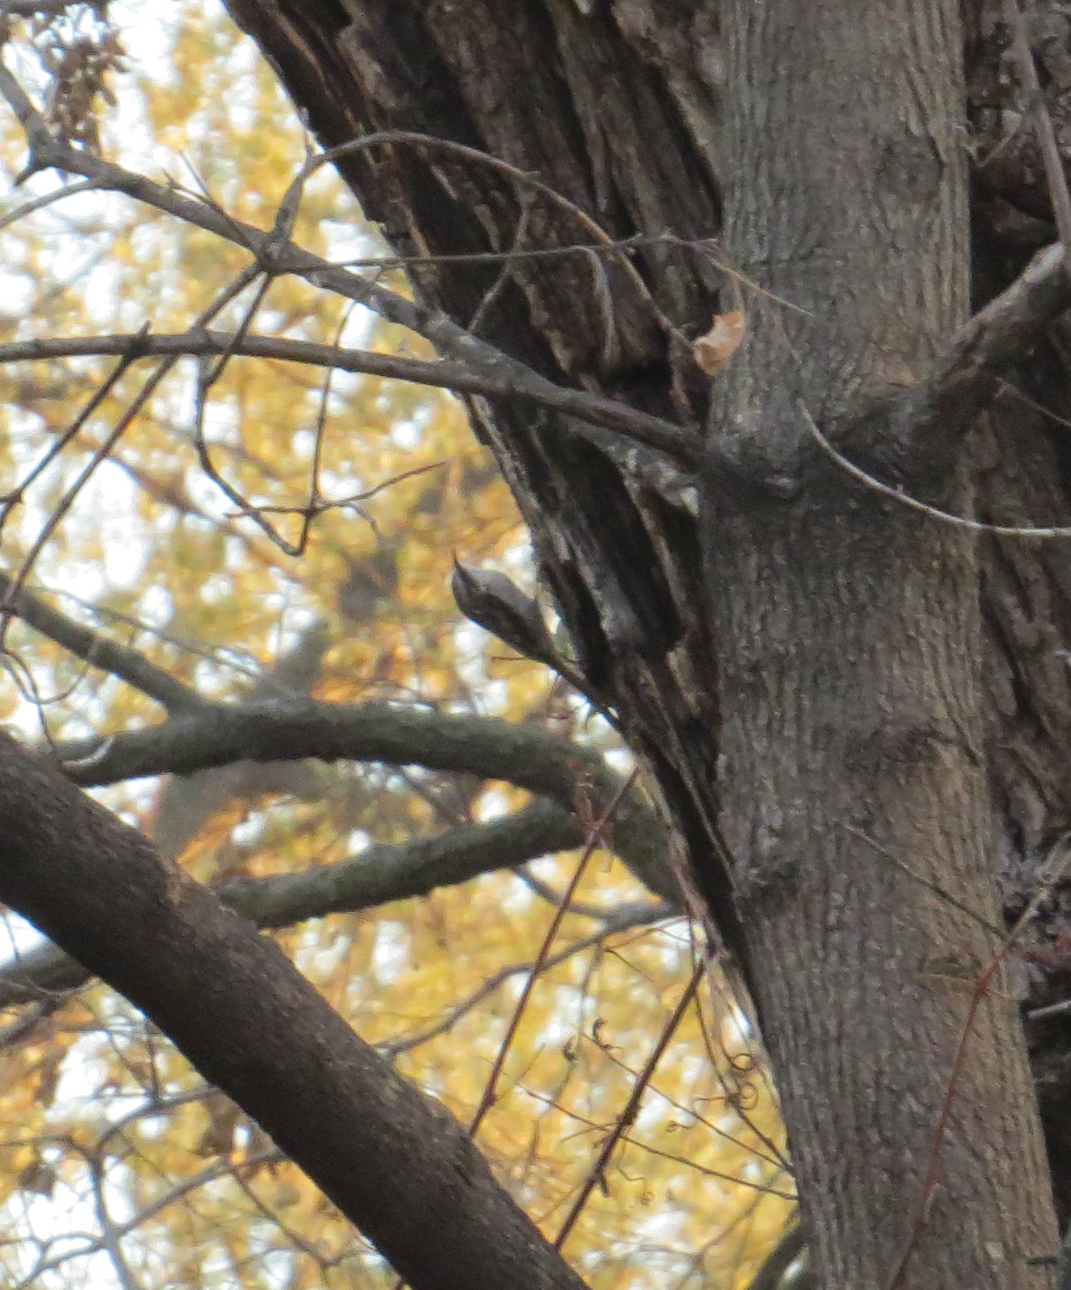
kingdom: Animalia
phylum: Chordata
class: Aves
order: Passeriformes
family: Certhiidae
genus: Certhia
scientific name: Certhia americana
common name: Brown creeper
